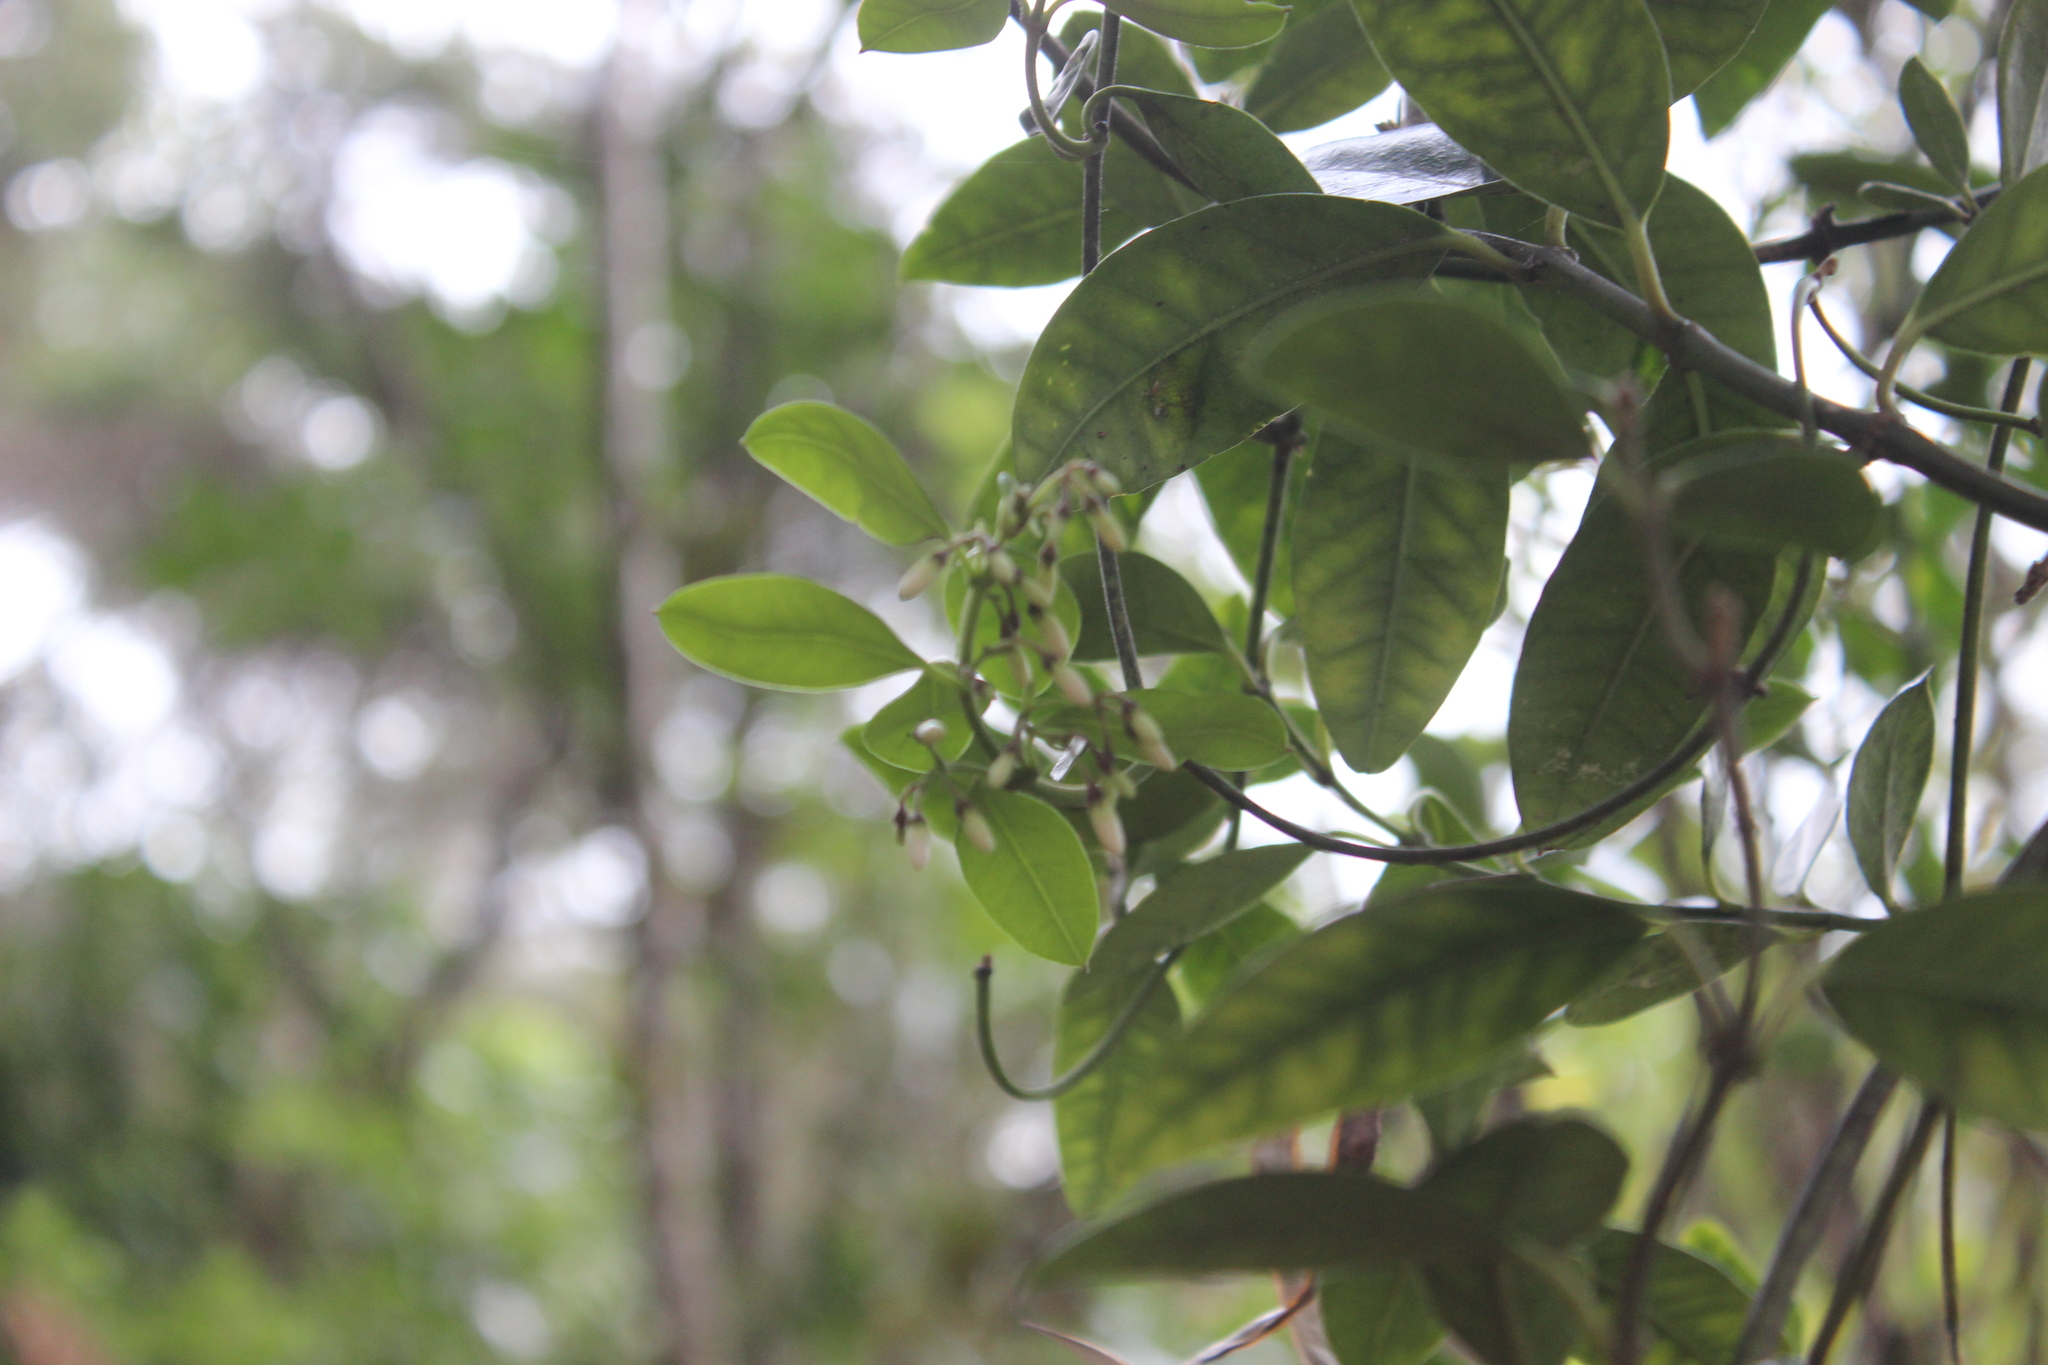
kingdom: Plantae
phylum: Tracheophyta
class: Magnoliopsida
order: Gentianales
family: Apocynaceae
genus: Parsonsia
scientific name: Parsonsia heterophylla
